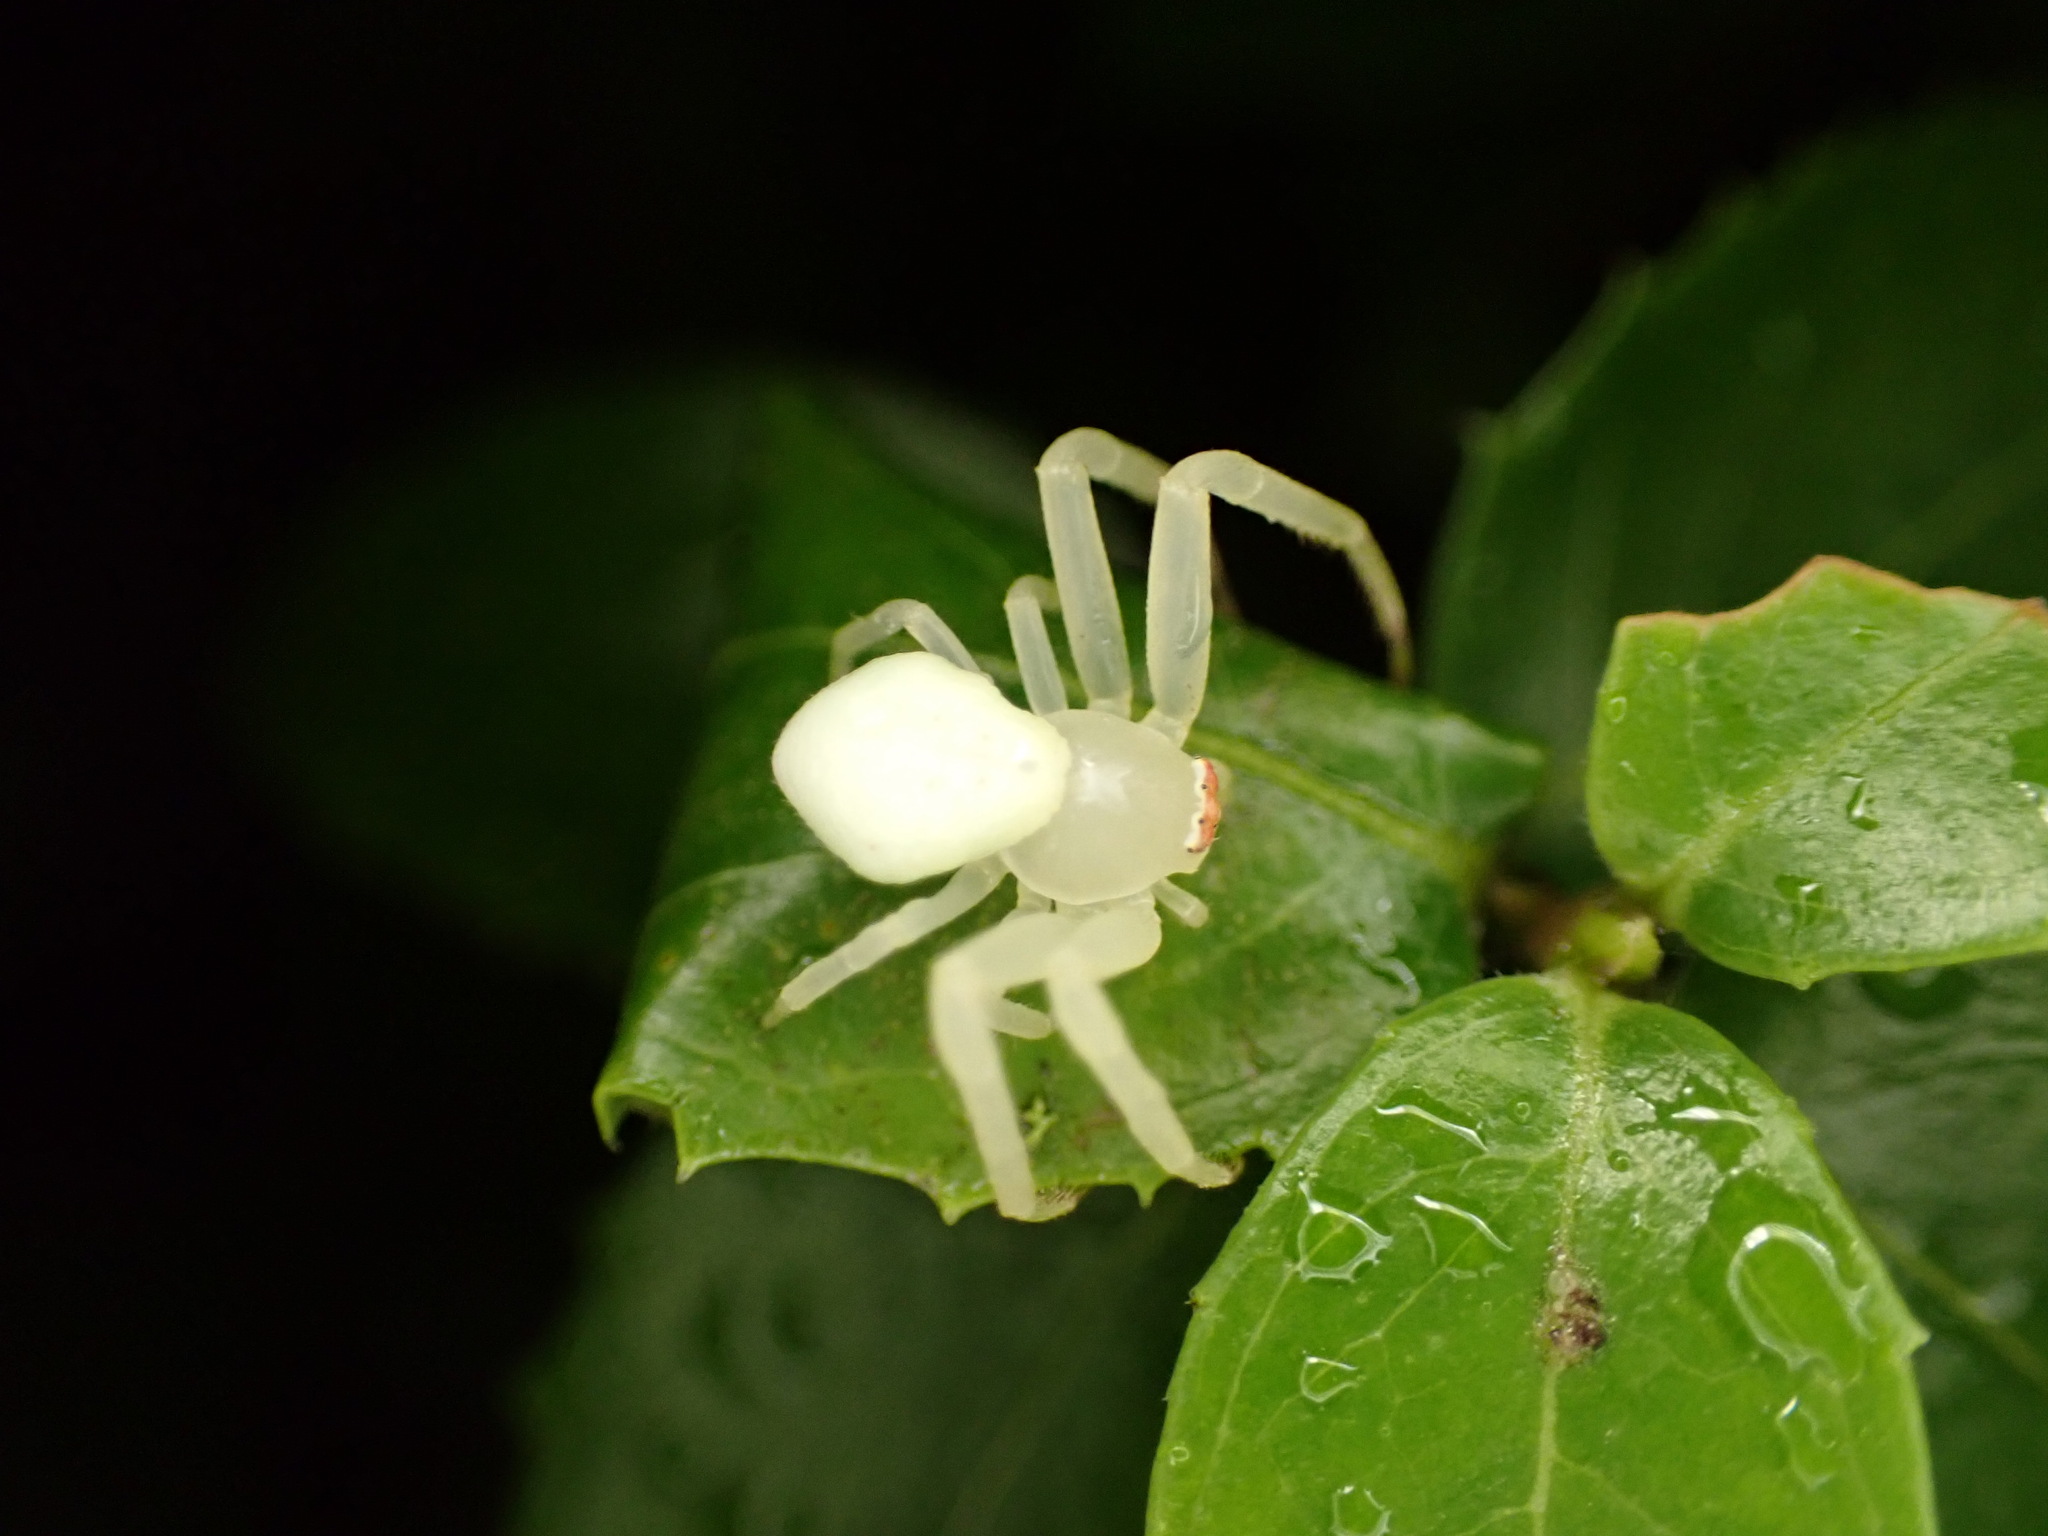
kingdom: Animalia
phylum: Arthropoda
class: Arachnida
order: Araneae
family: Thomisidae
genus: Misumena
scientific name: Misumena vatia
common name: Goldenrod crab spider
